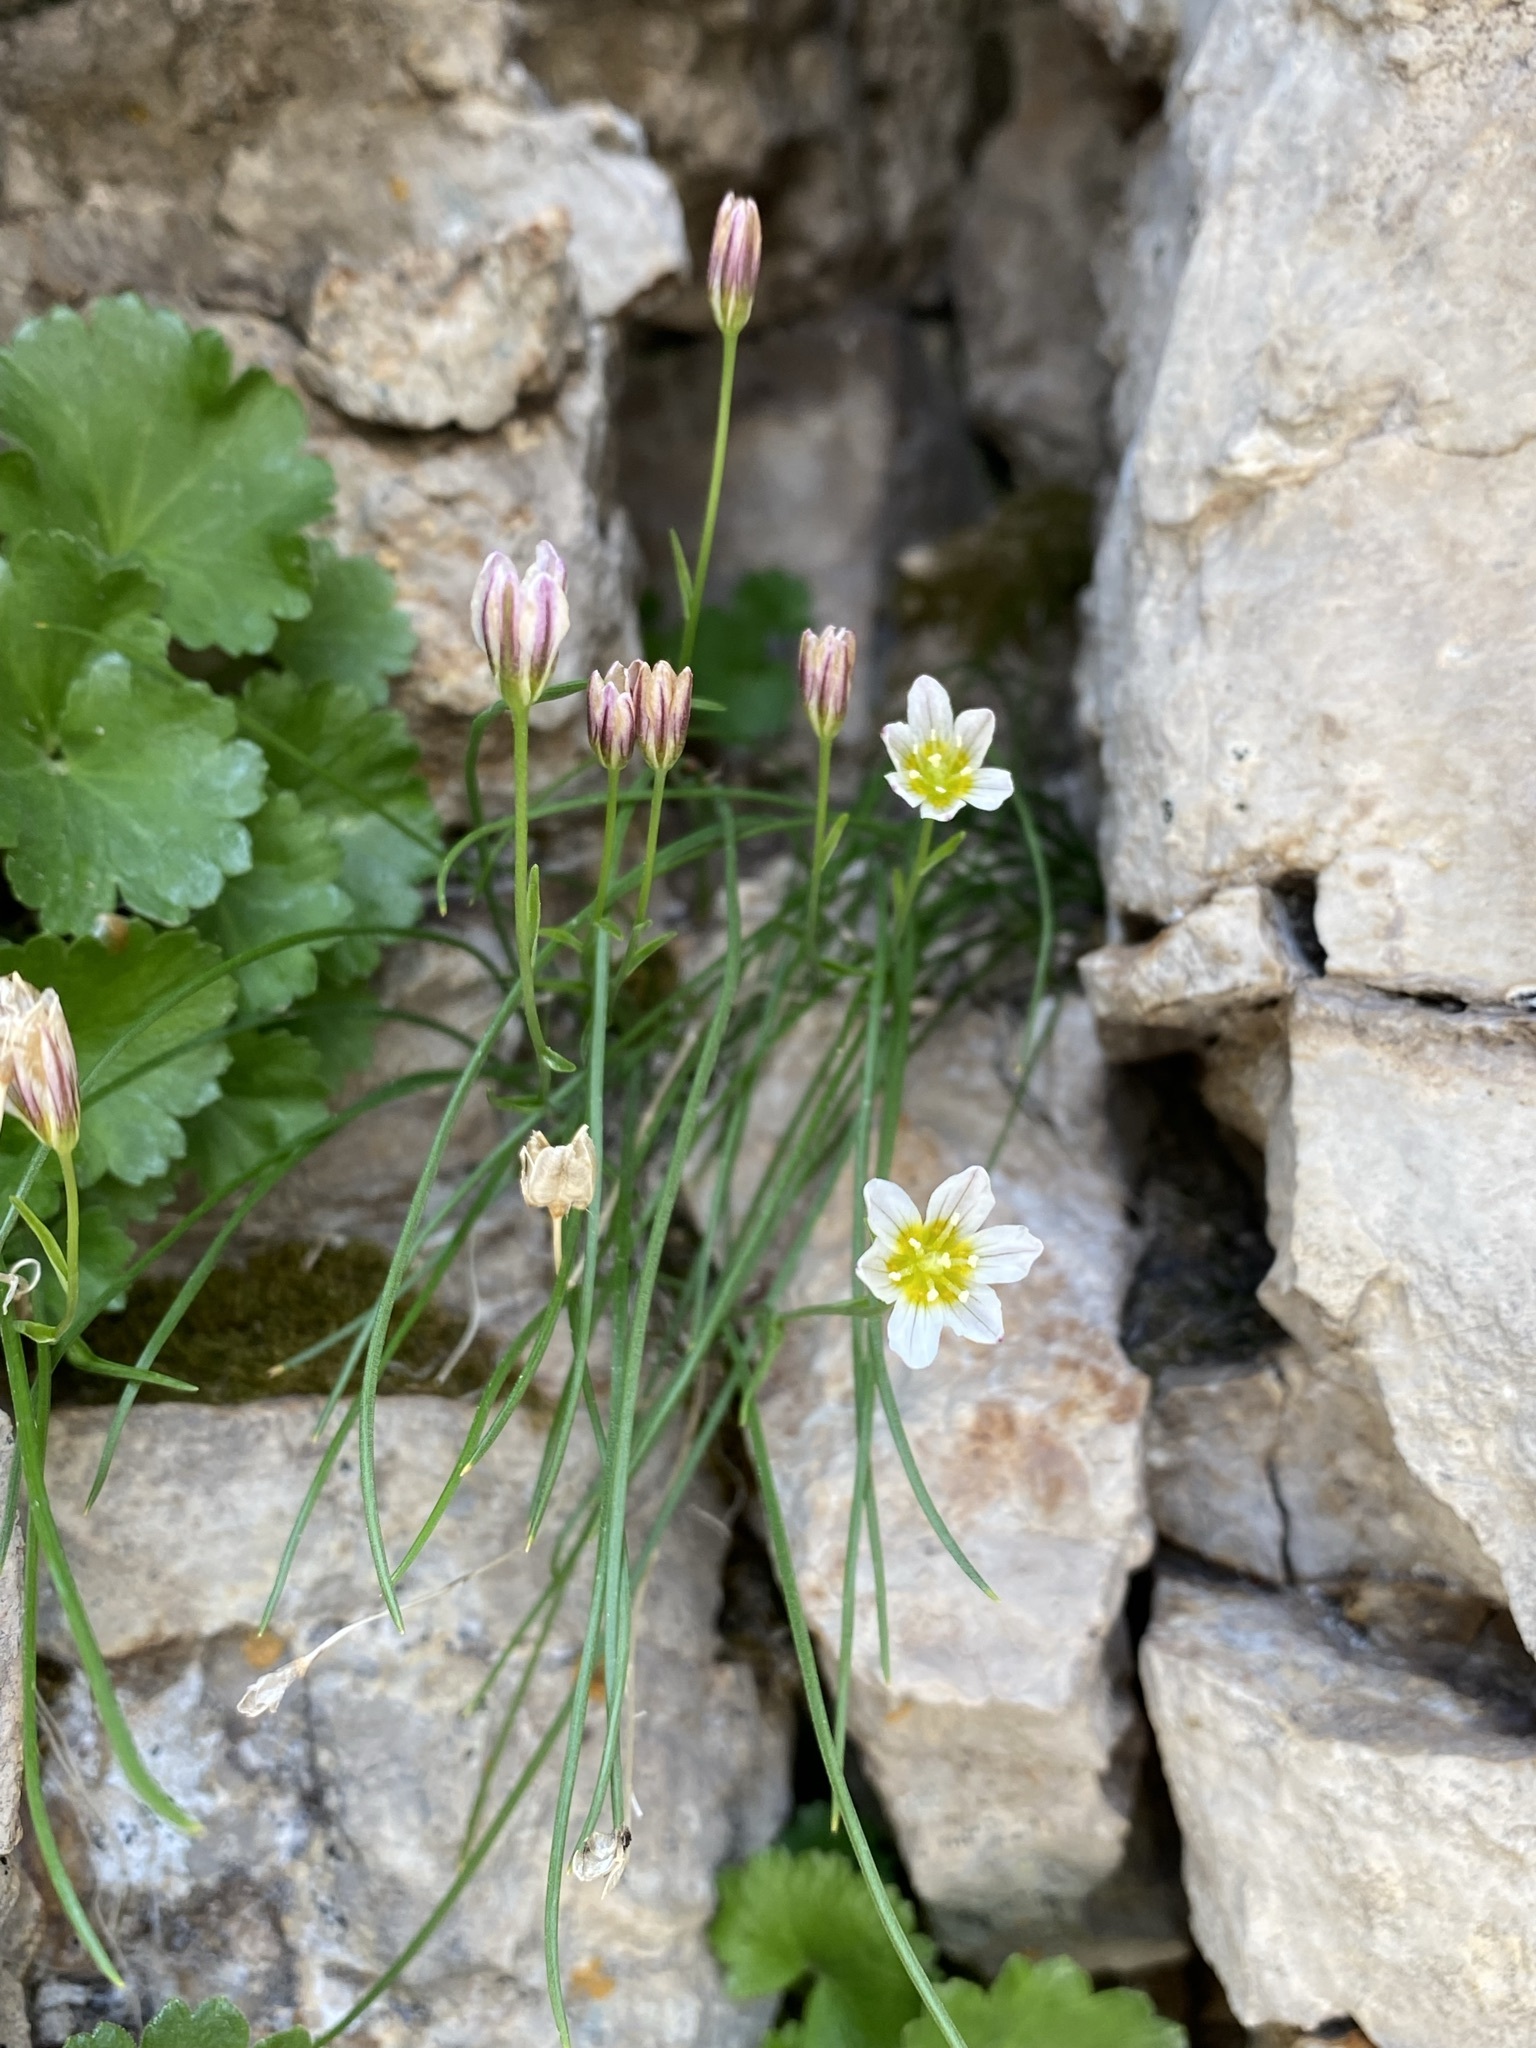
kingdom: Plantae
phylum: Tracheophyta
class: Liliopsida
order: Liliales
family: Liliaceae
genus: Gagea
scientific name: Gagea serotina
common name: Snowdon lily
